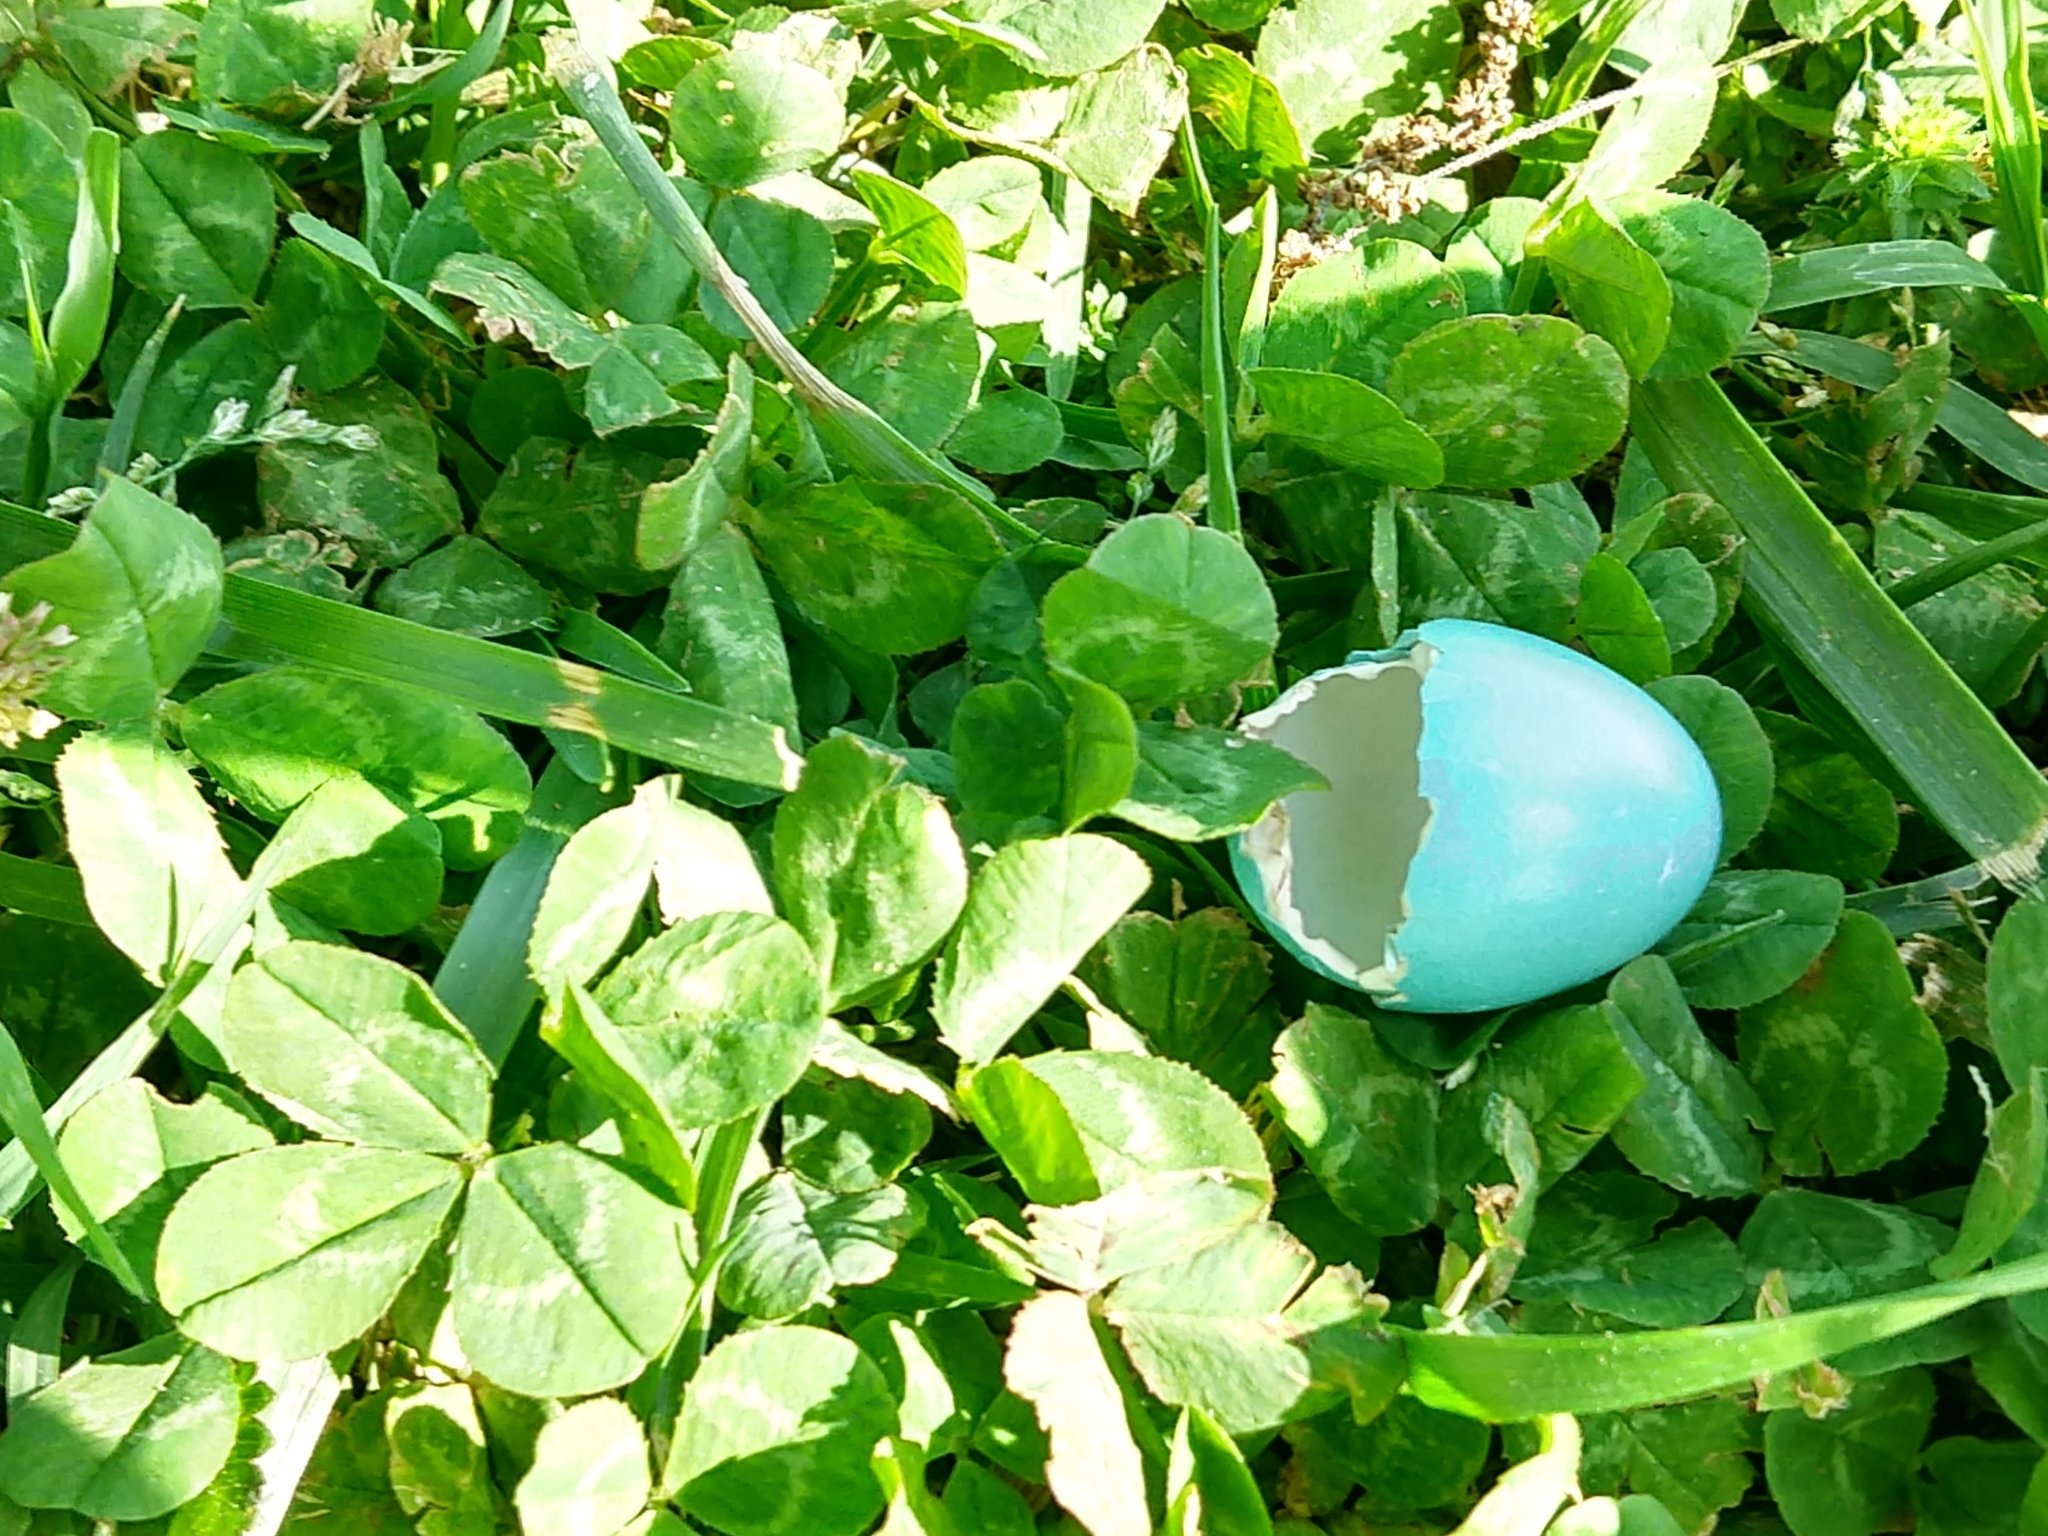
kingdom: Animalia
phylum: Chordata
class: Aves
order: Passeriformes
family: Turdidae
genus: Turdus
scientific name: Turdus migratorius
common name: American robin
